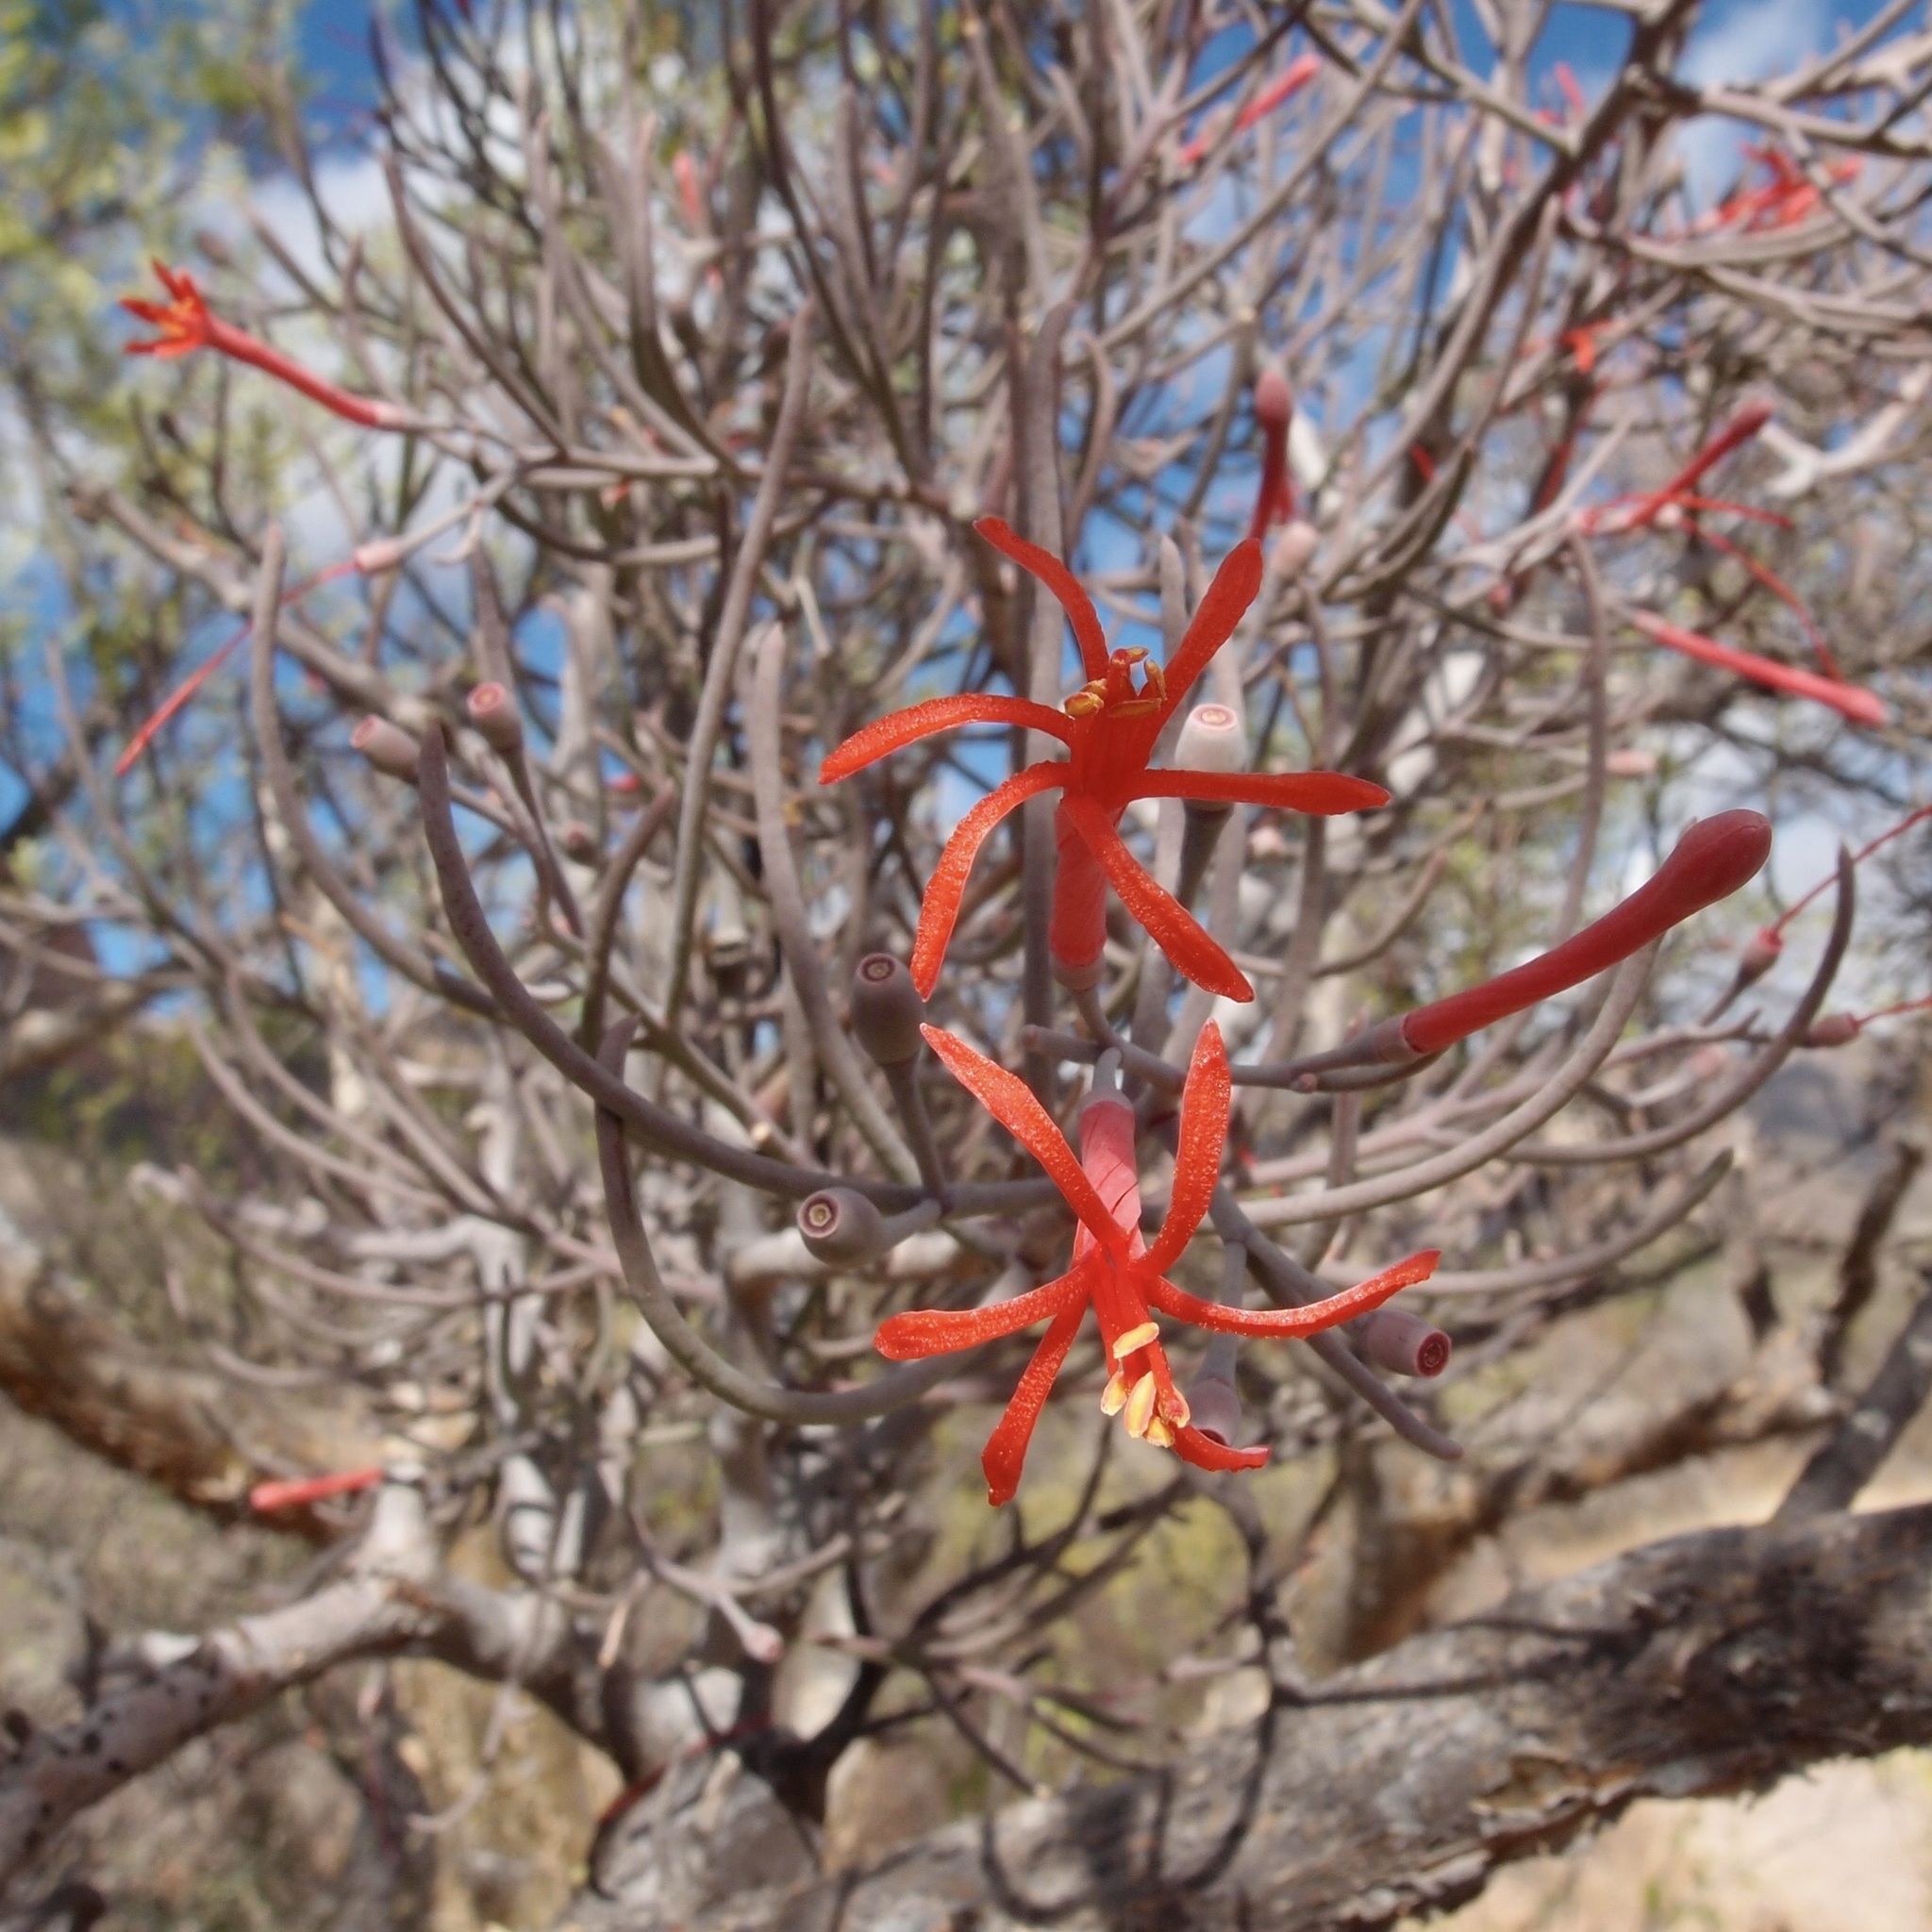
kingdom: Plantae
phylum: Tracheophyta
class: Magnoliopsida
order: Santalales
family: Loranthaceae
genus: Psittacanthus
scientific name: Psittacanthus sonorae
